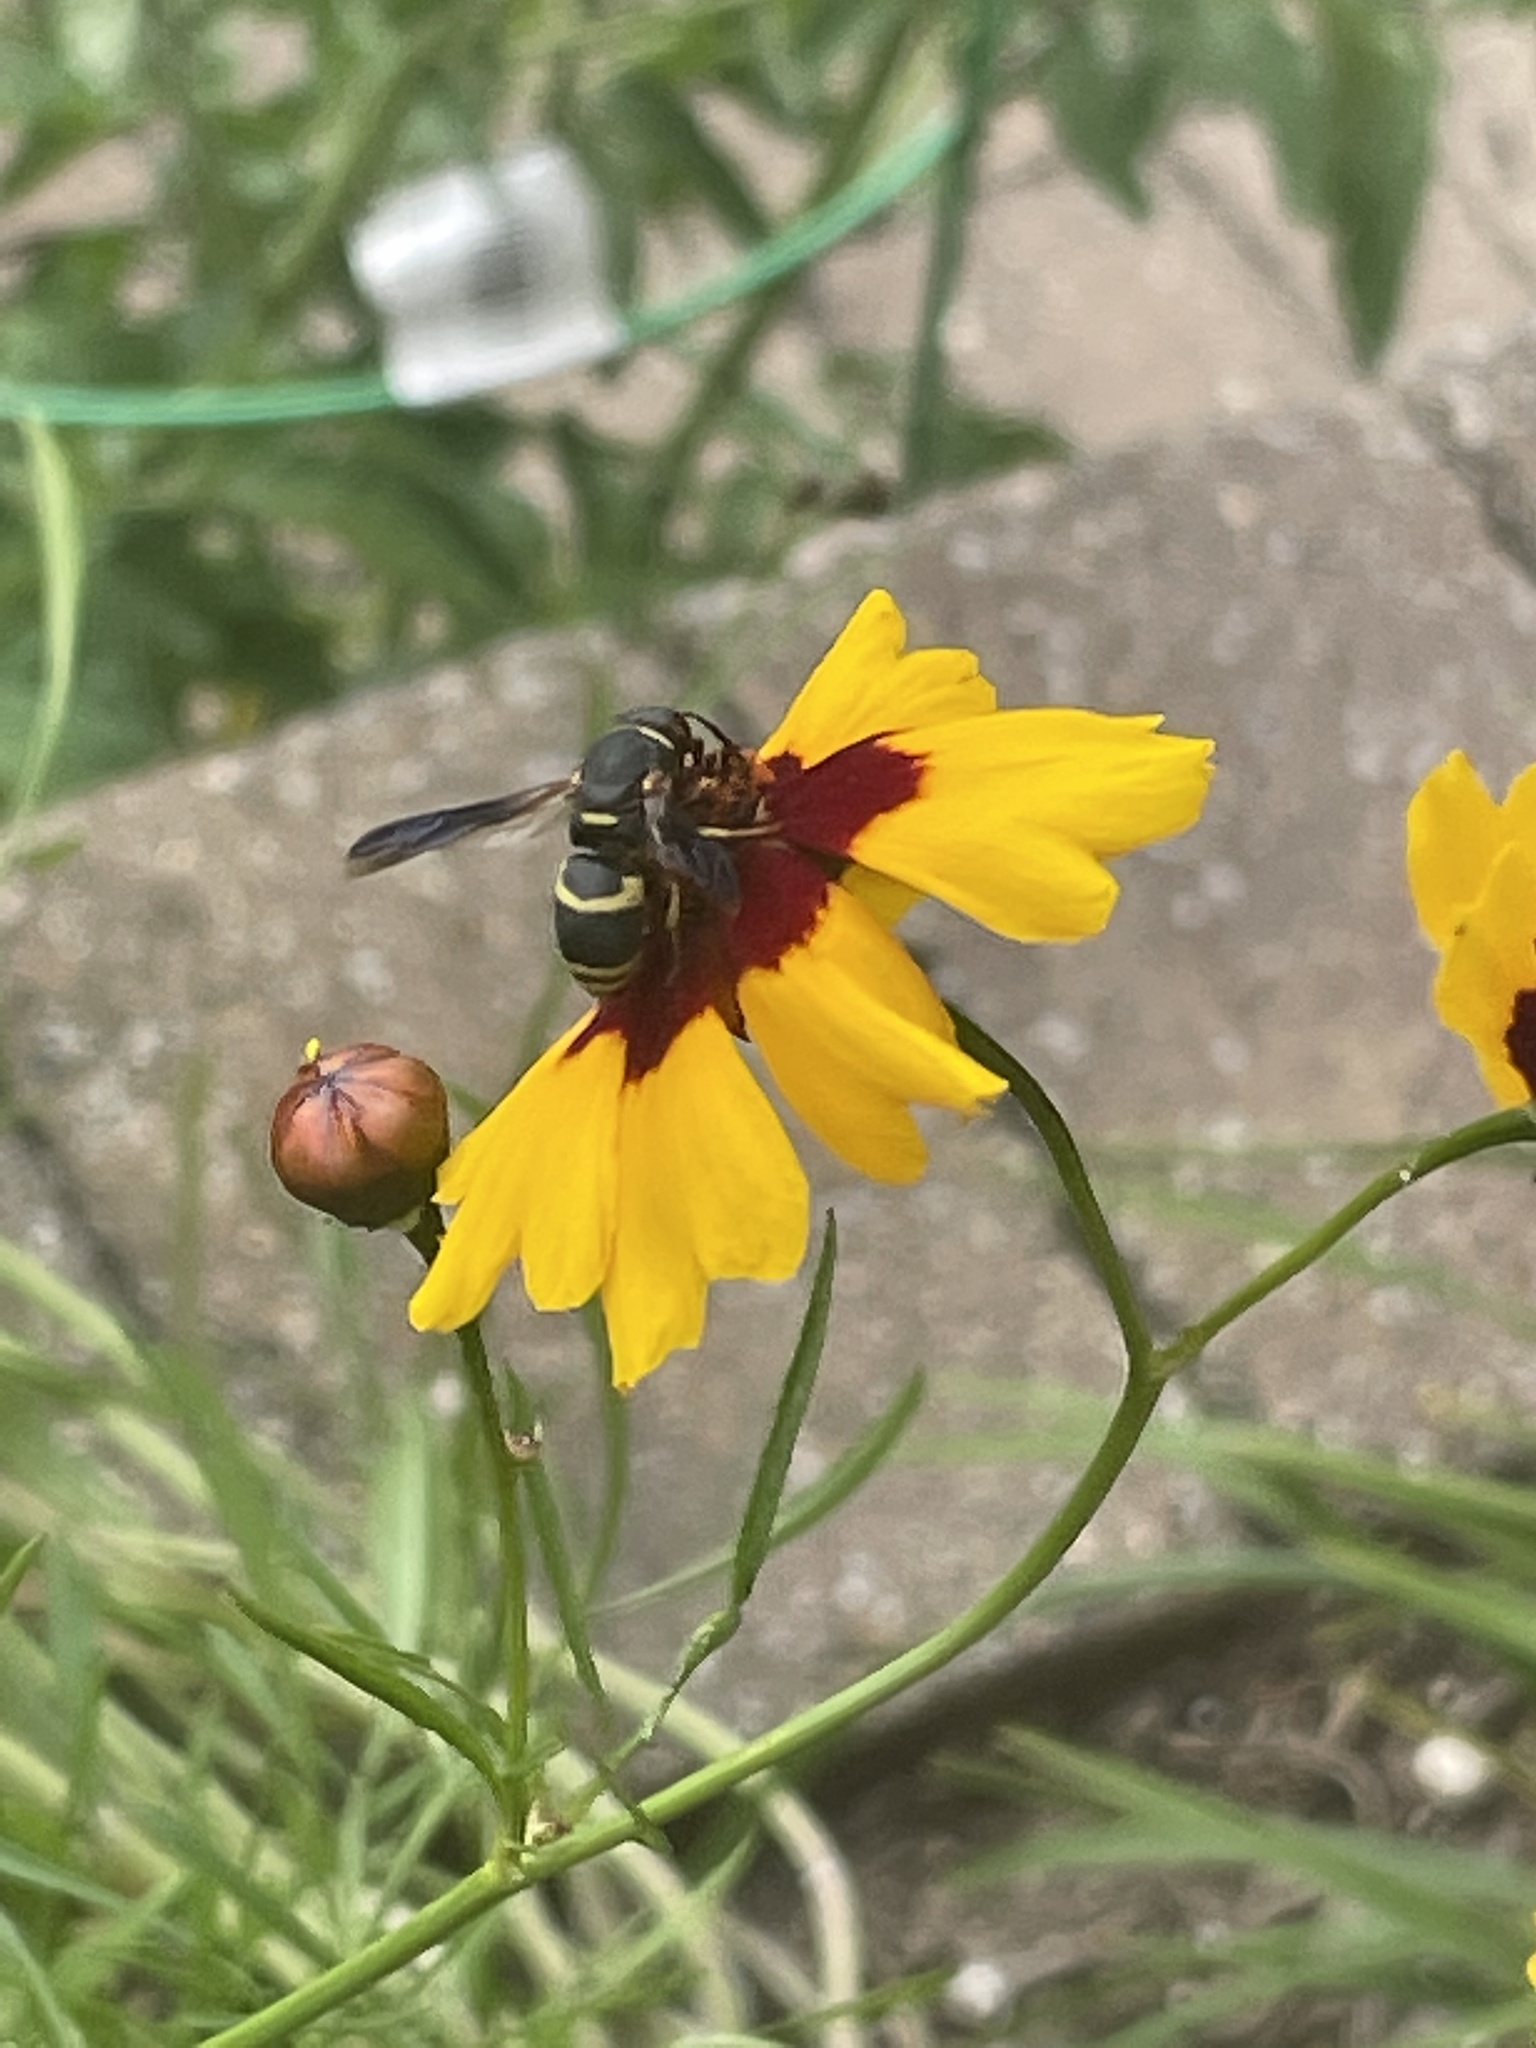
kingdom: Animalia
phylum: Arthropoda
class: Insecta
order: Hymenoptera
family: Eumenidae
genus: Euodynerus
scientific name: Euodynerus hidalgo
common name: Wasp
